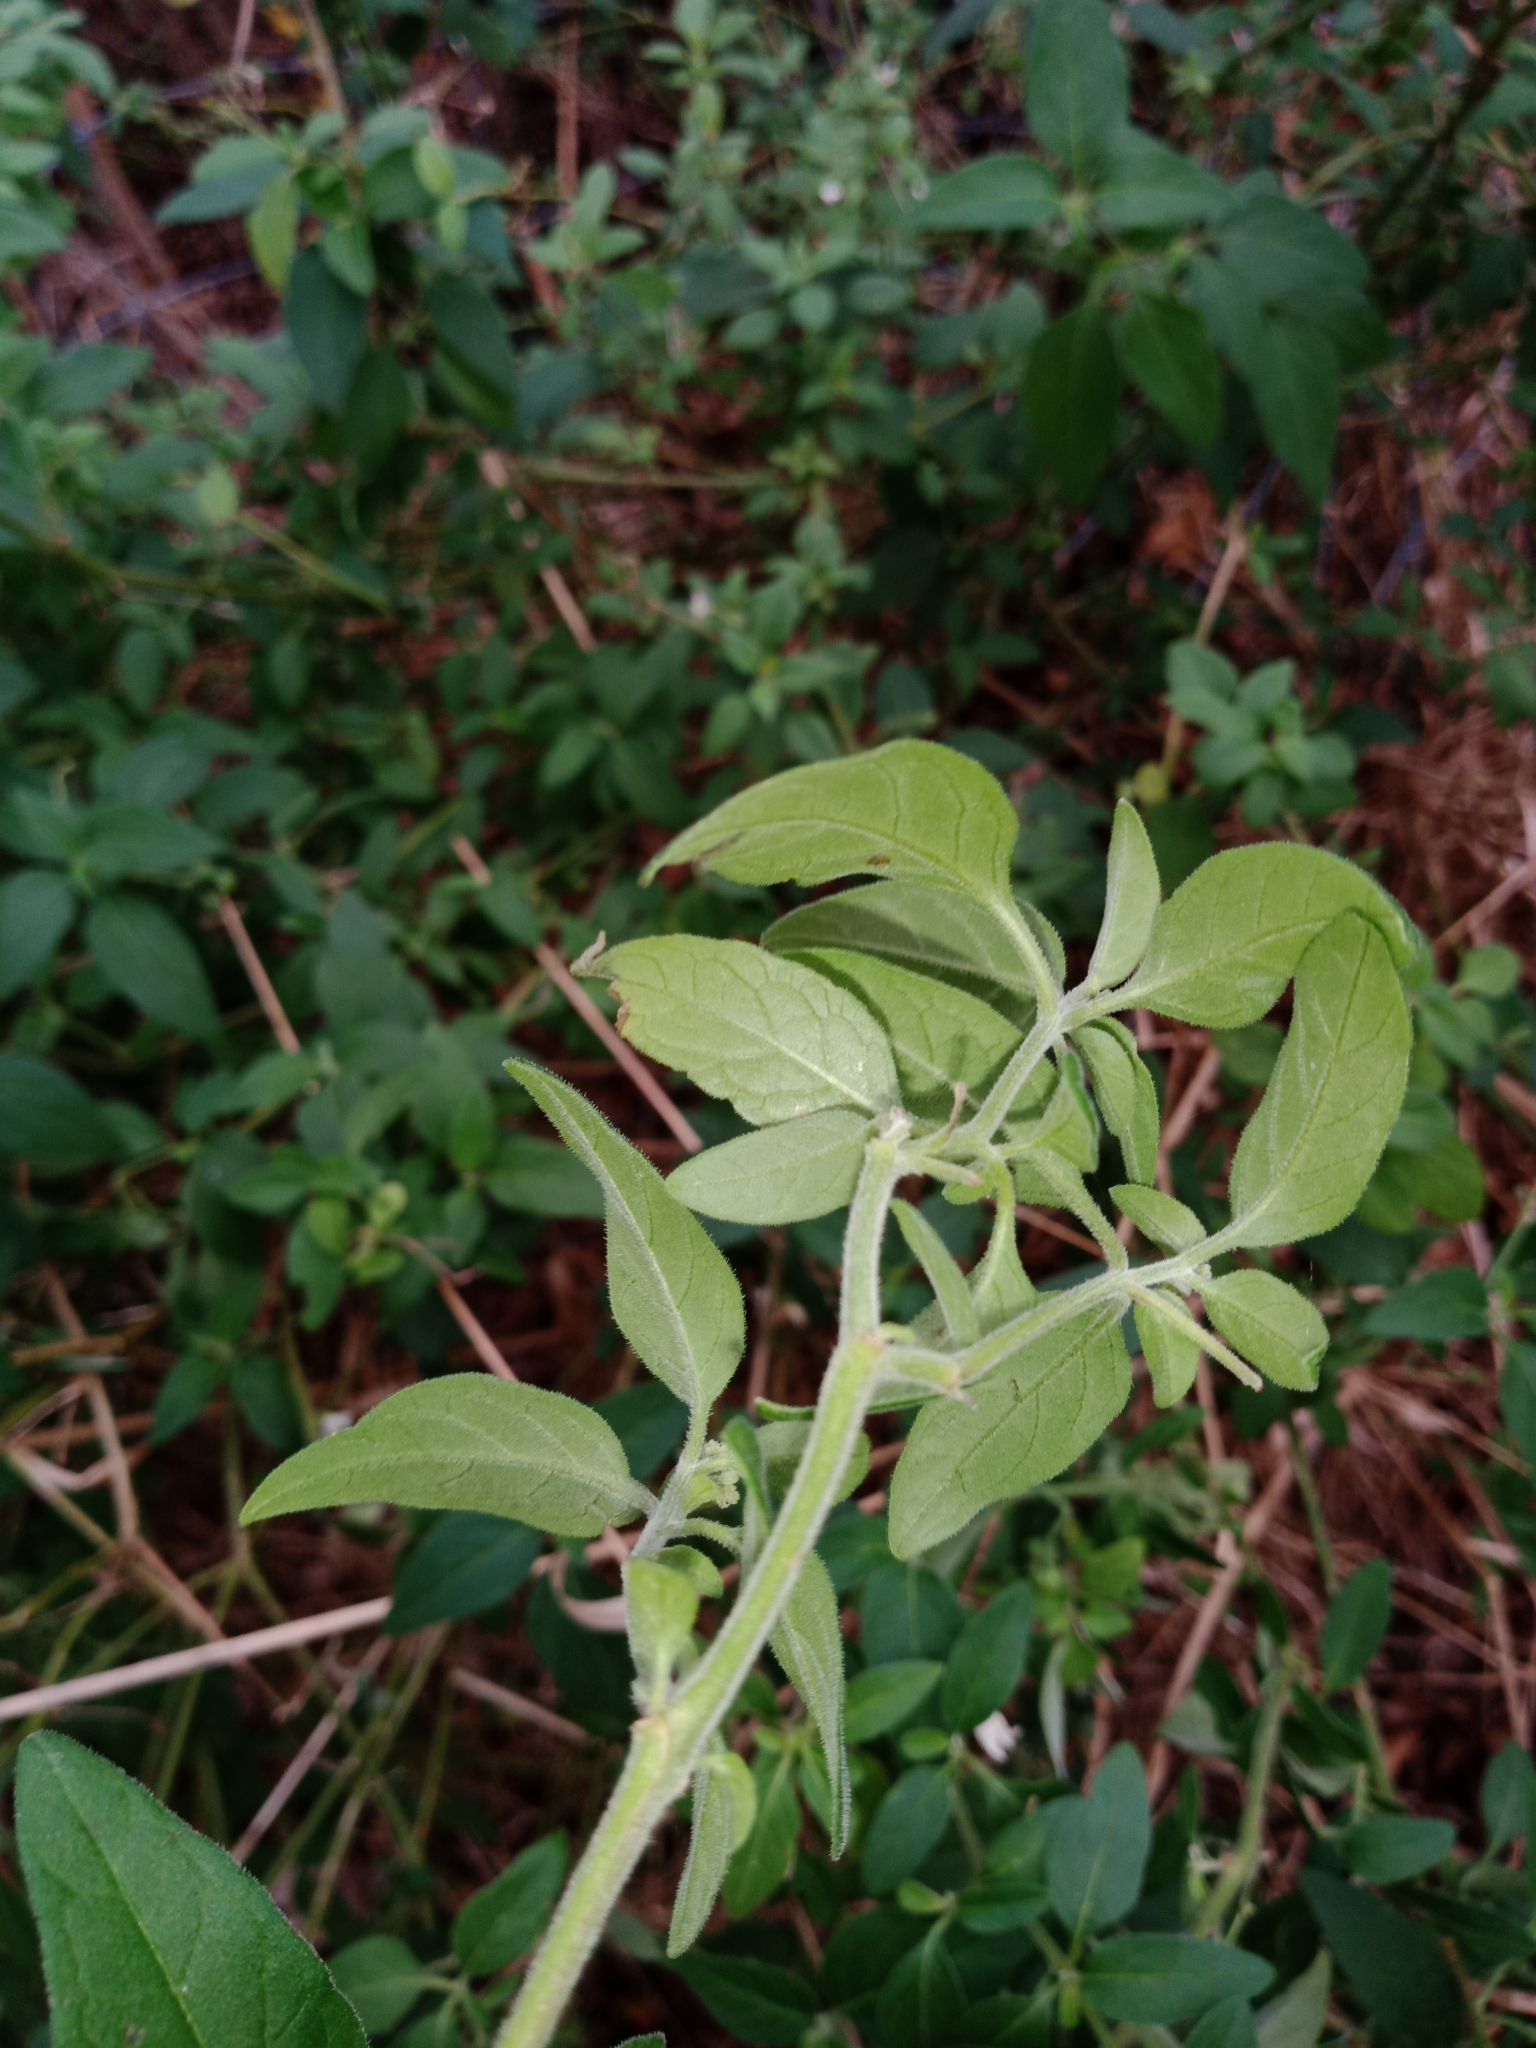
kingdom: Plantae
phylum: Tracheophyta
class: Magnoliopsida
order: Solanales
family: Solanaceae
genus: Solanum
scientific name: Solanum chenopodioides
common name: Tall nightshade
